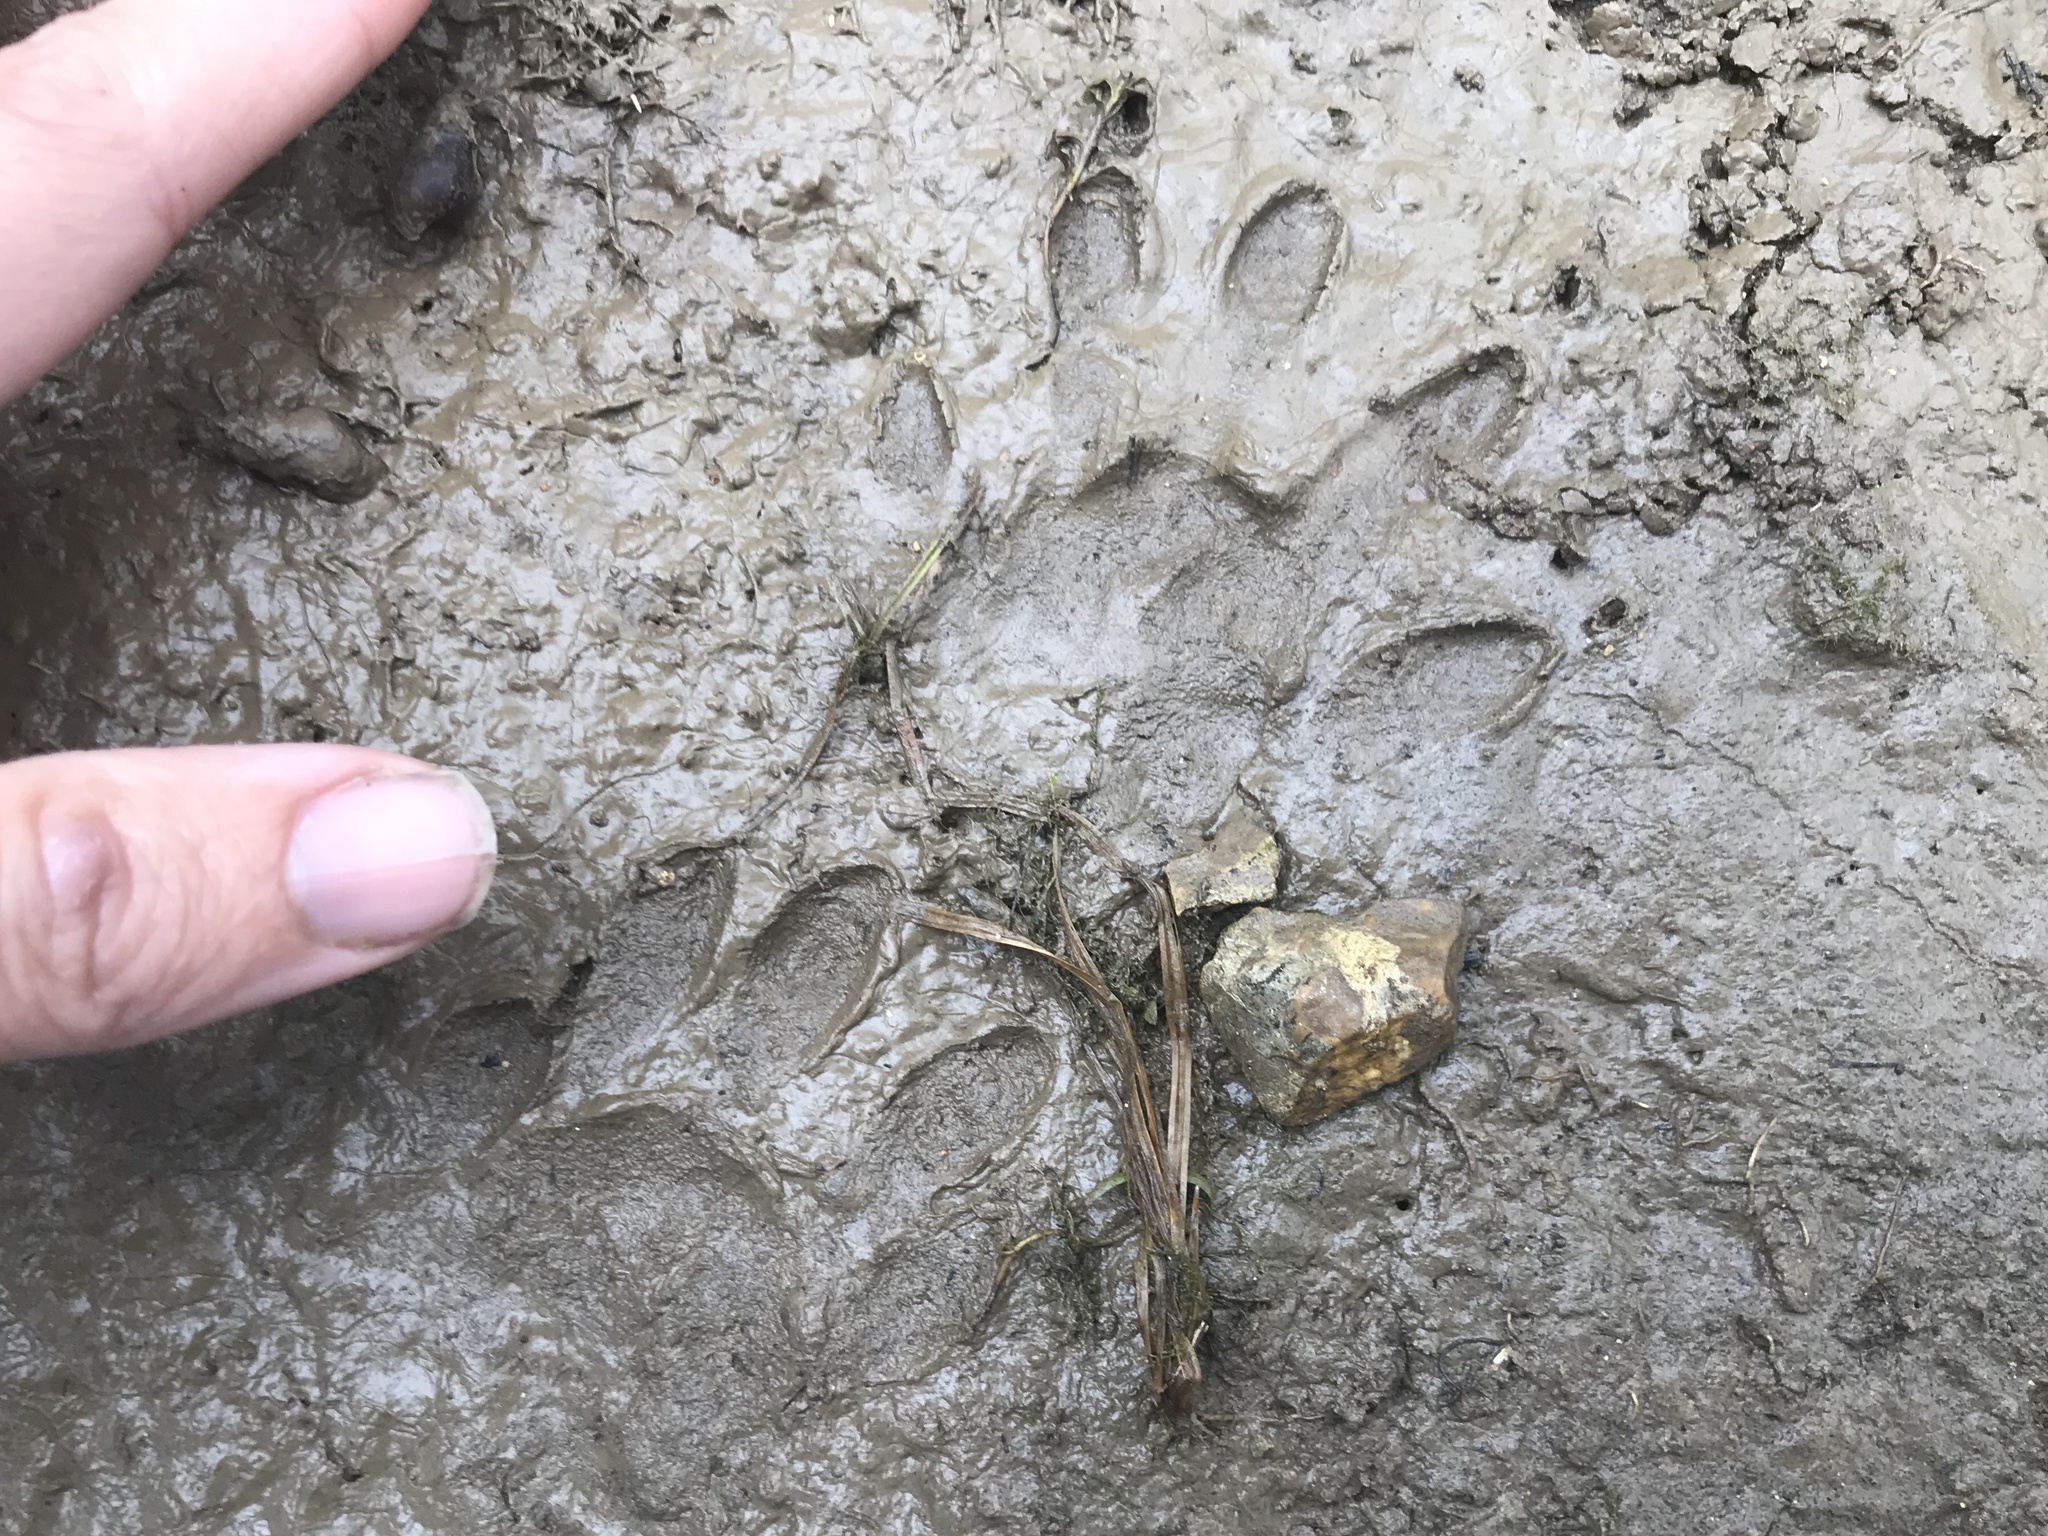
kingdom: Animalia
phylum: Chordata
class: Mammalia
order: Carnivora
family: Procyonidae
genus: Procyon
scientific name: Procyon lotor
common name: Raccoon
